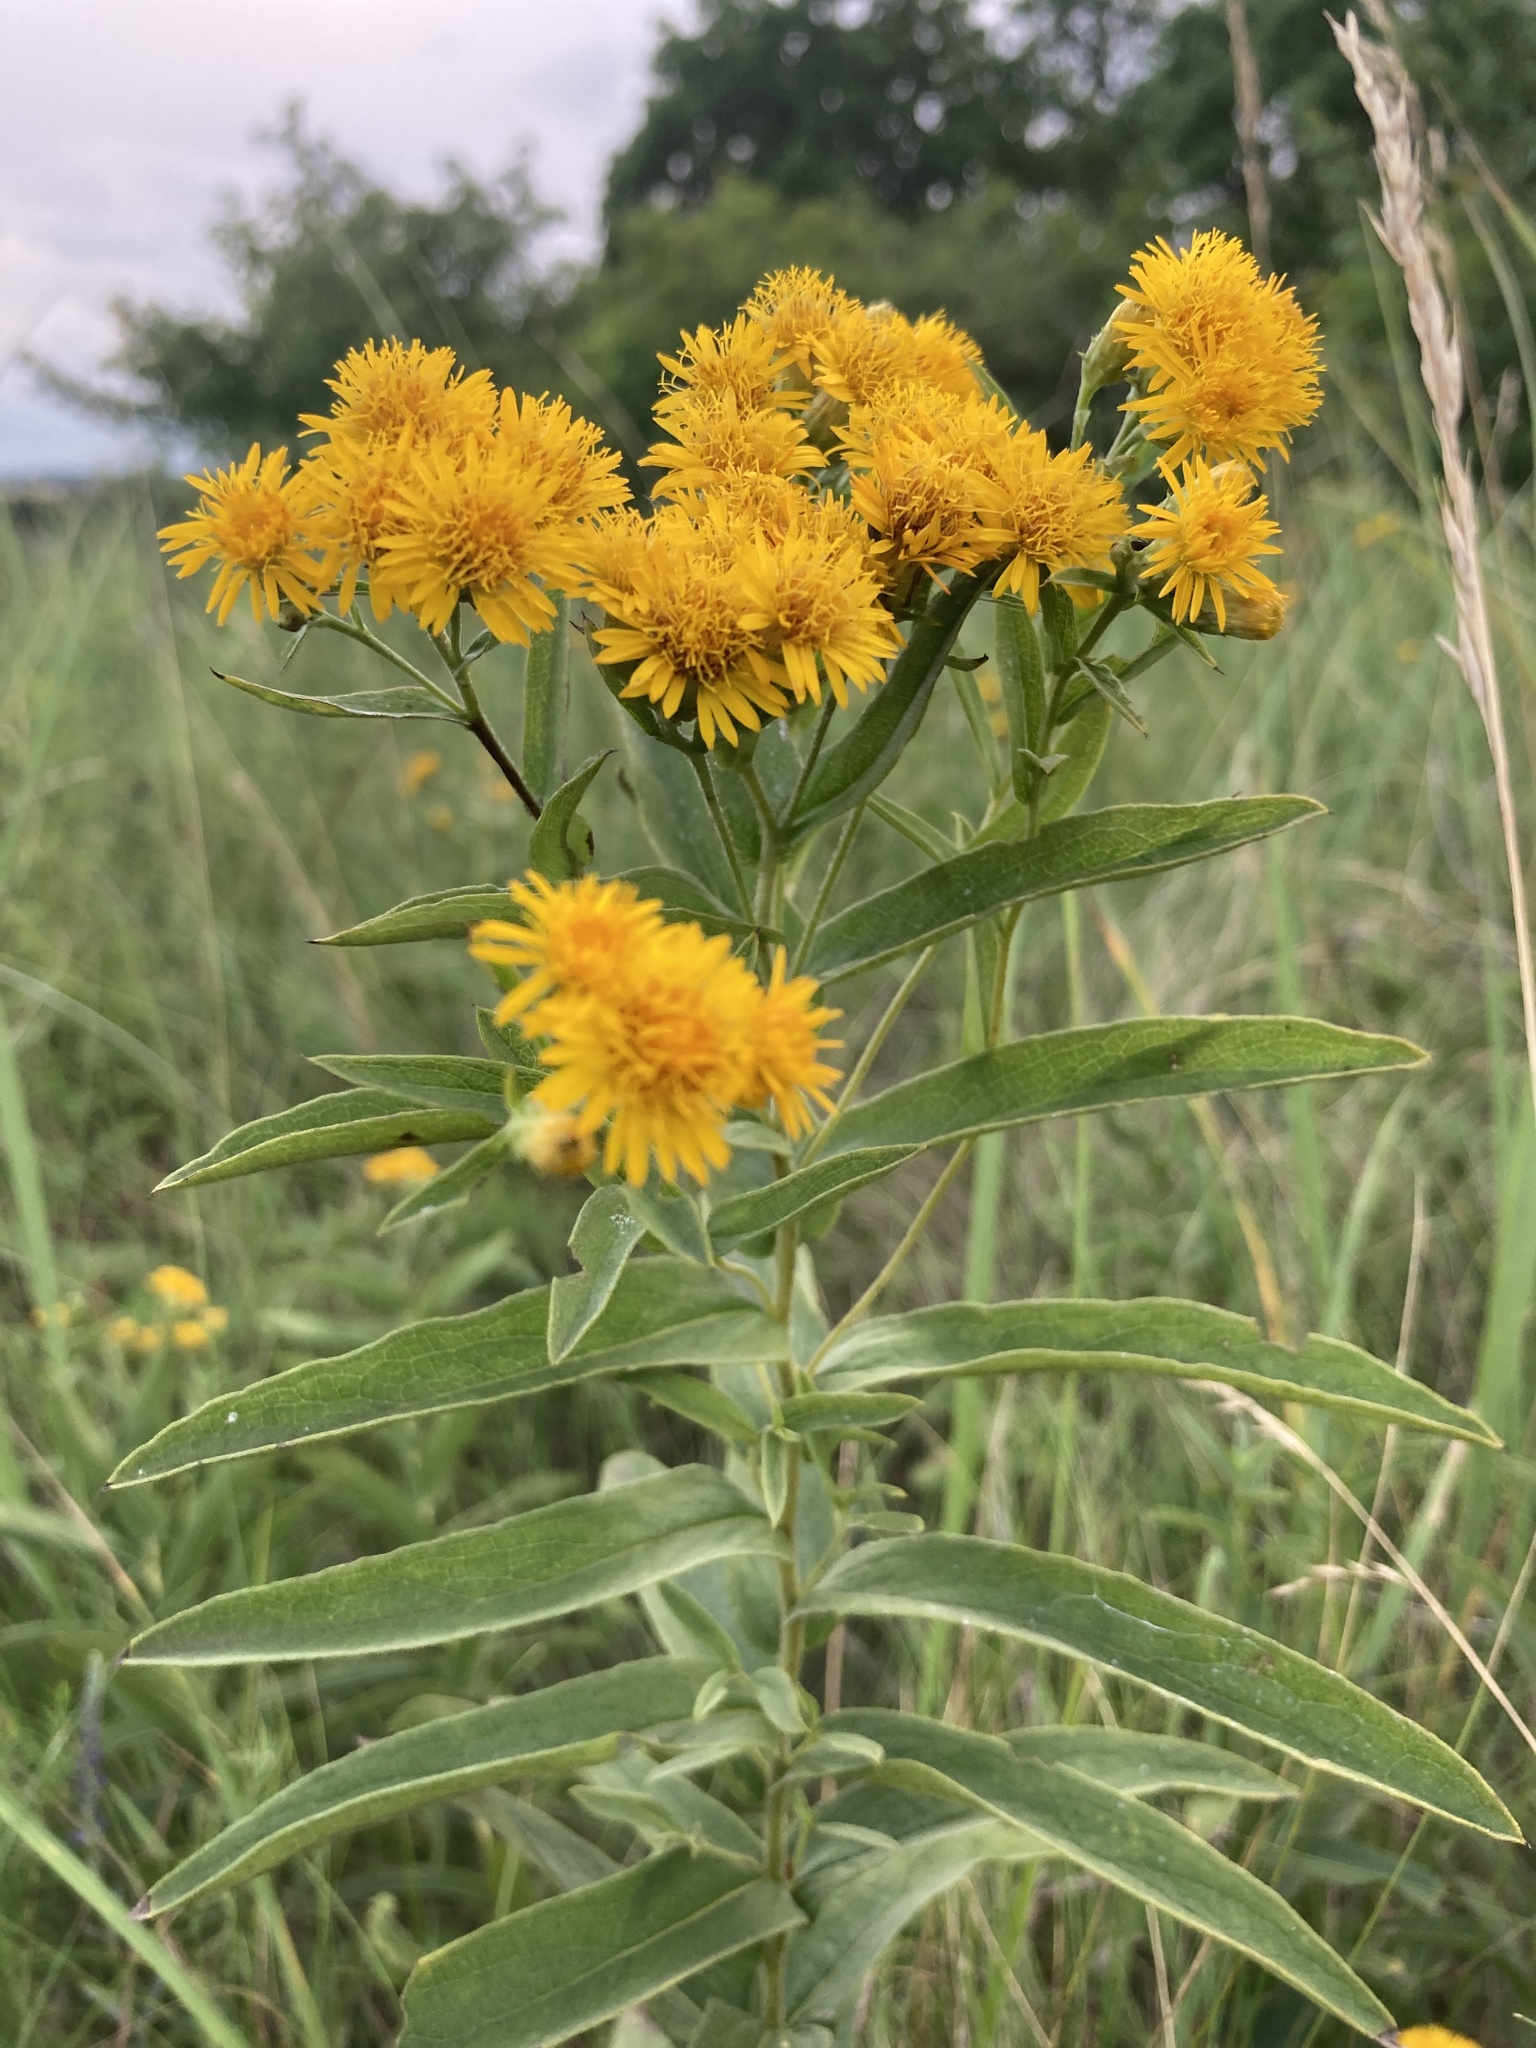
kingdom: Plantae
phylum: Tracheophyta
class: Magnoliopsida
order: Asterales
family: Asteraceae
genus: Pentanema
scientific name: Pentanema germanicum
